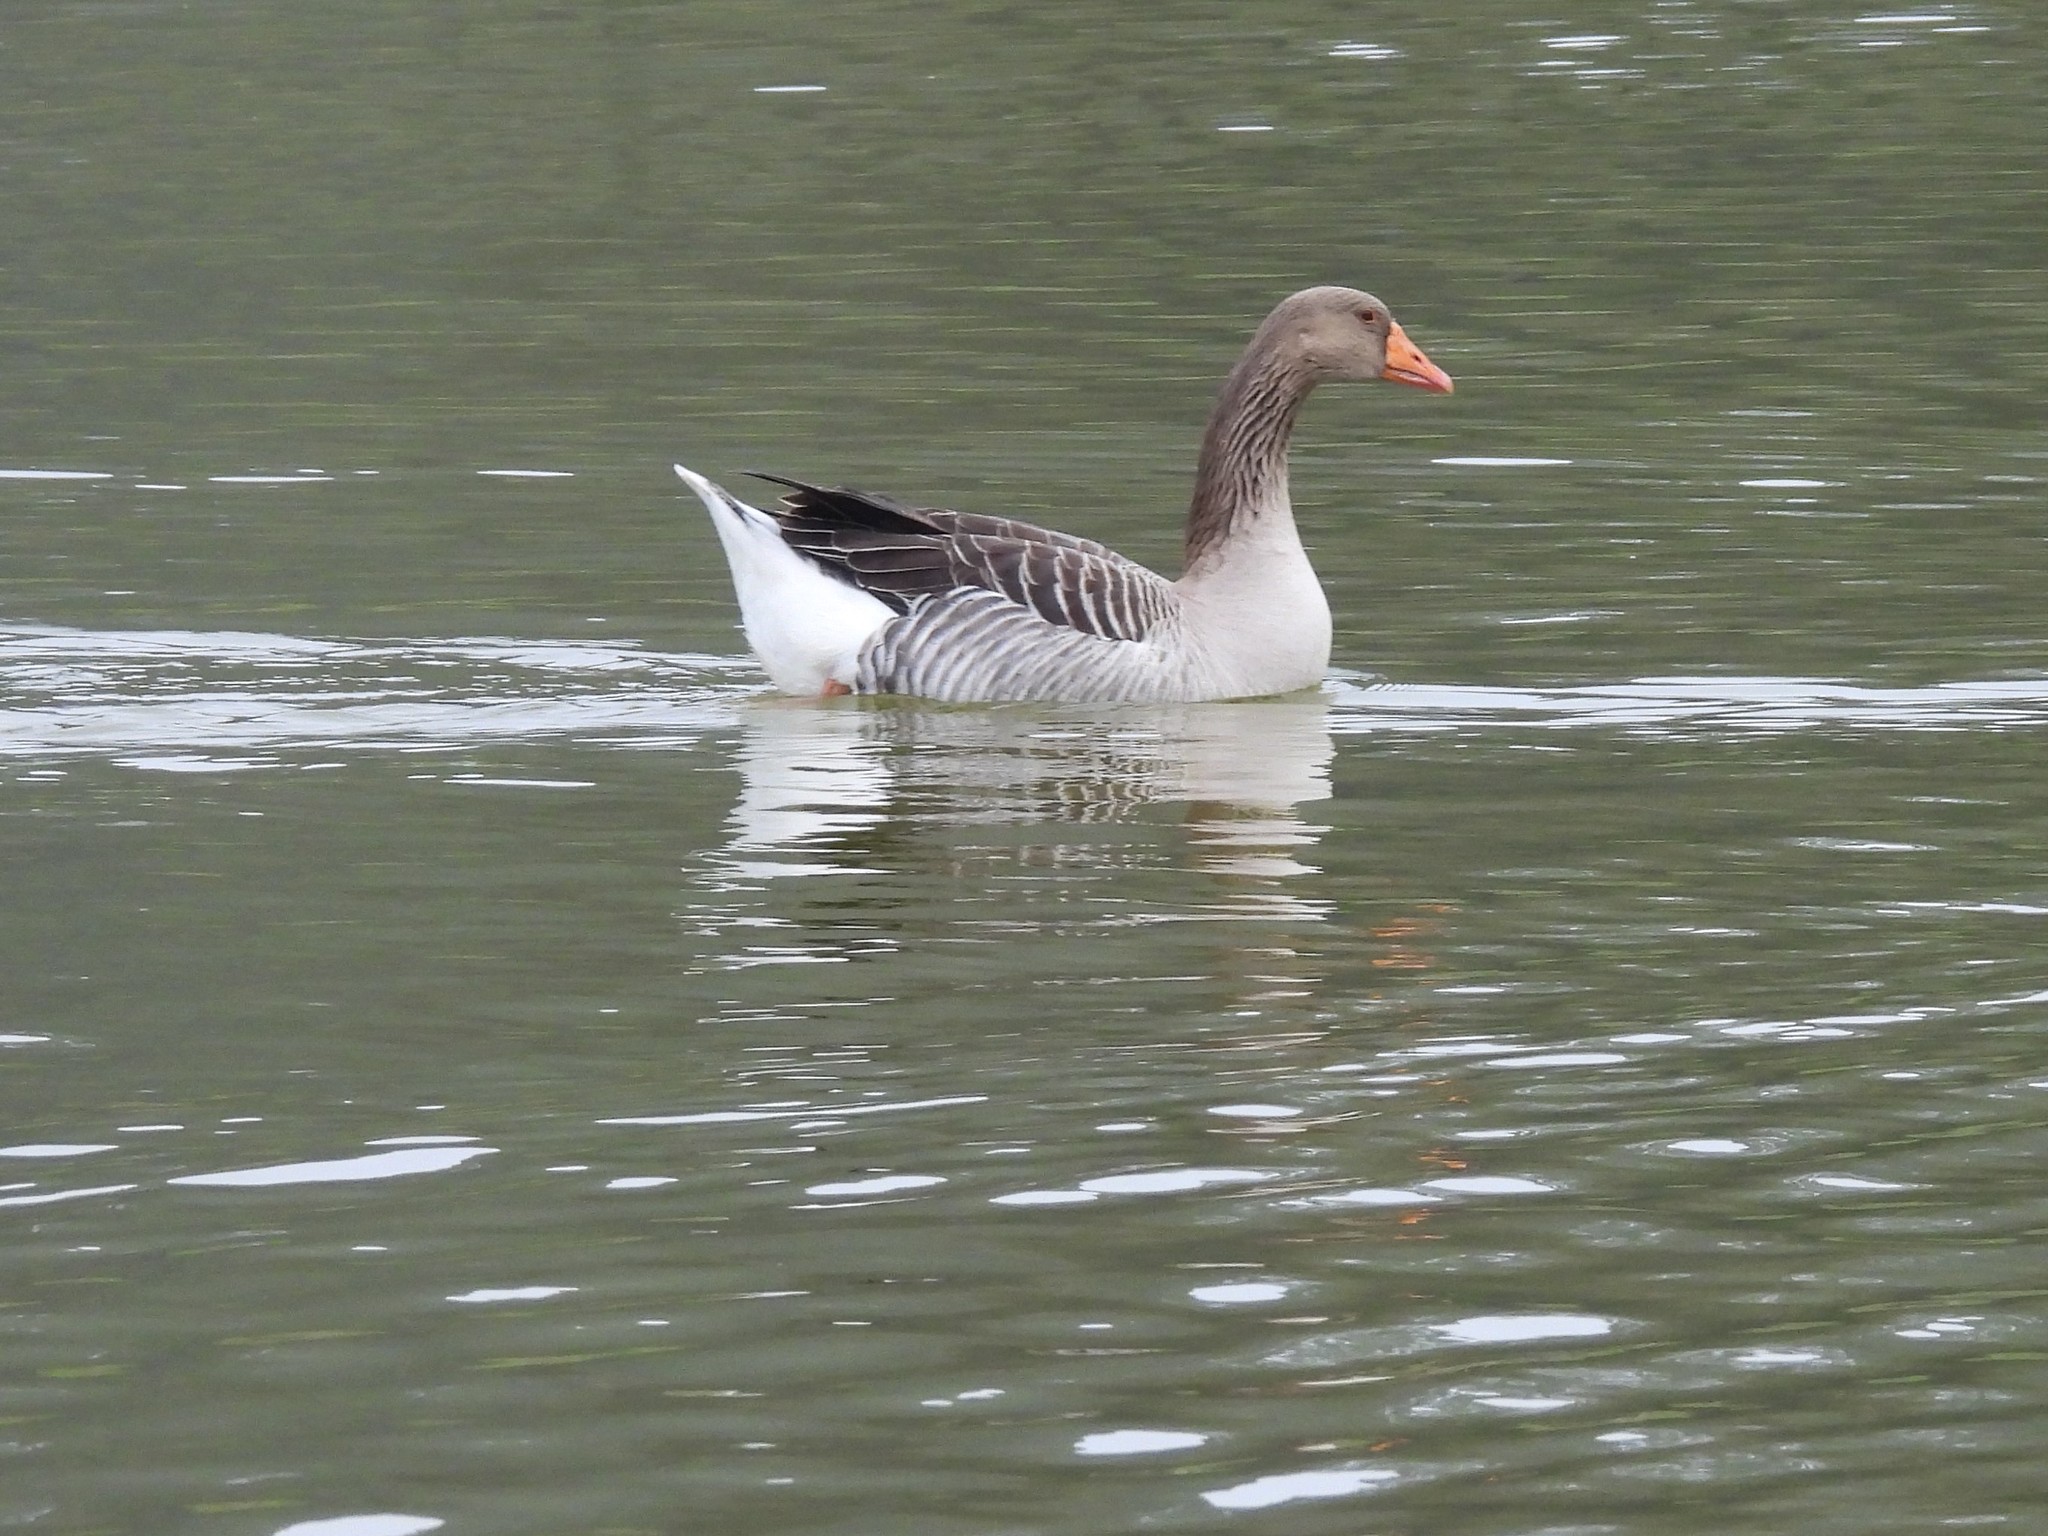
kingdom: Animalia
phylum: Chordata
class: Aves
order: Anseriformes
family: Anatidae
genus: Anser
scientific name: Anser anser
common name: Greylag goose
